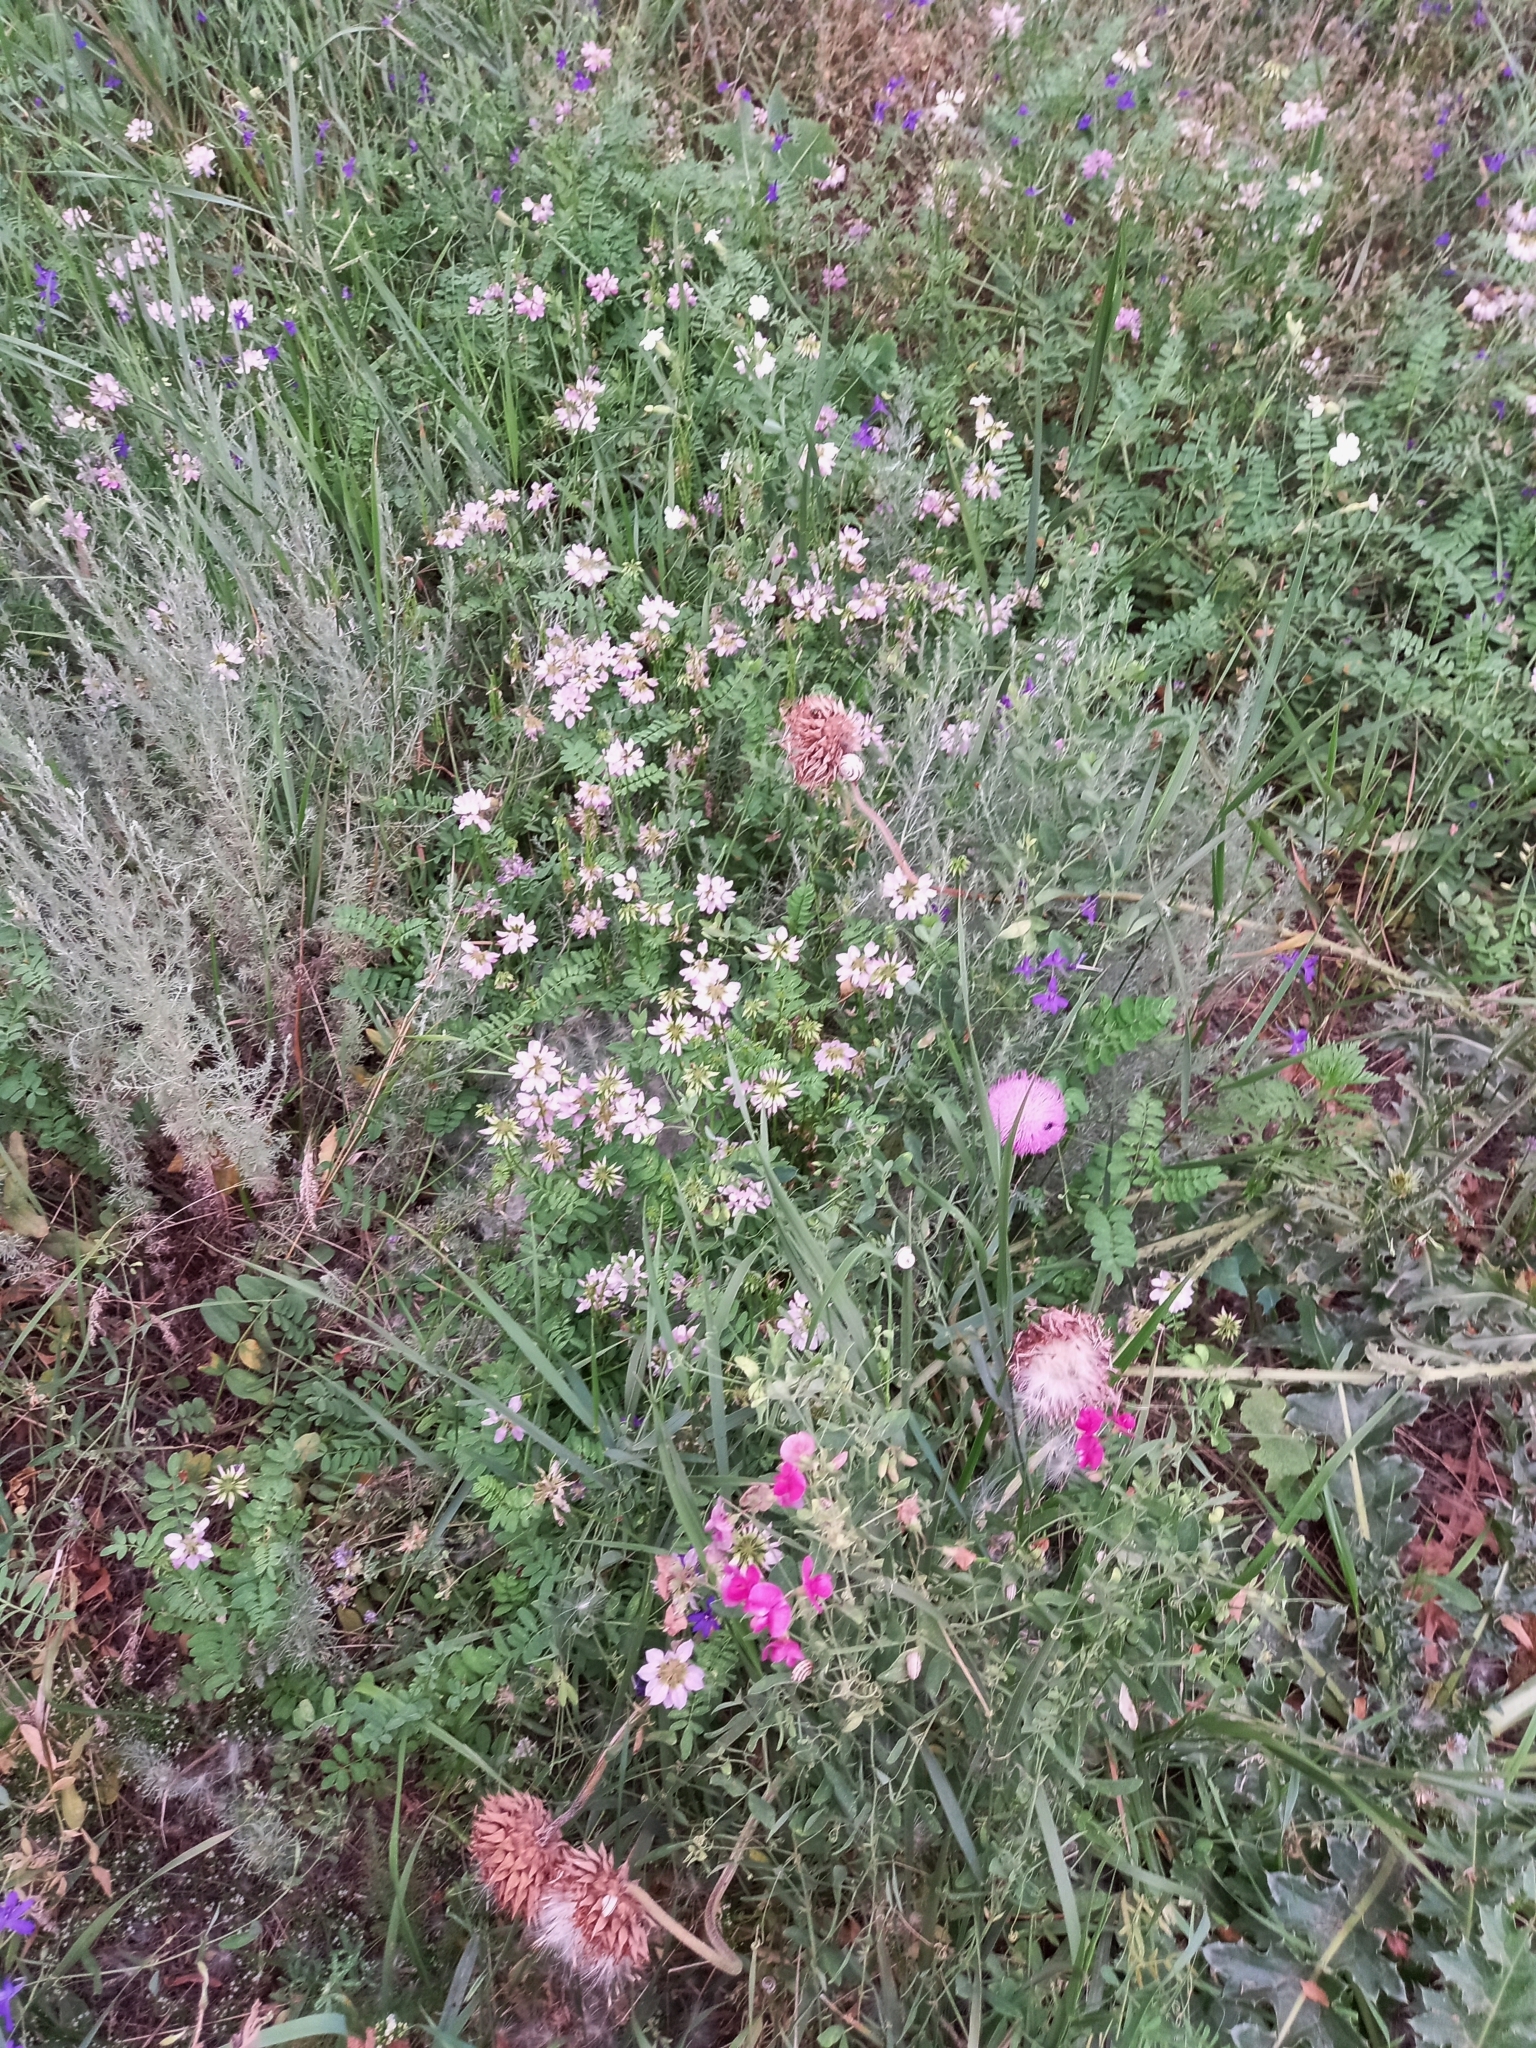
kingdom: Plantae
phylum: Tracheophyta
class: Magnoliopsida
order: Fabales
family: Fabaceae
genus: Coronilla
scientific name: Coronilla varia
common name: Crownvetch
